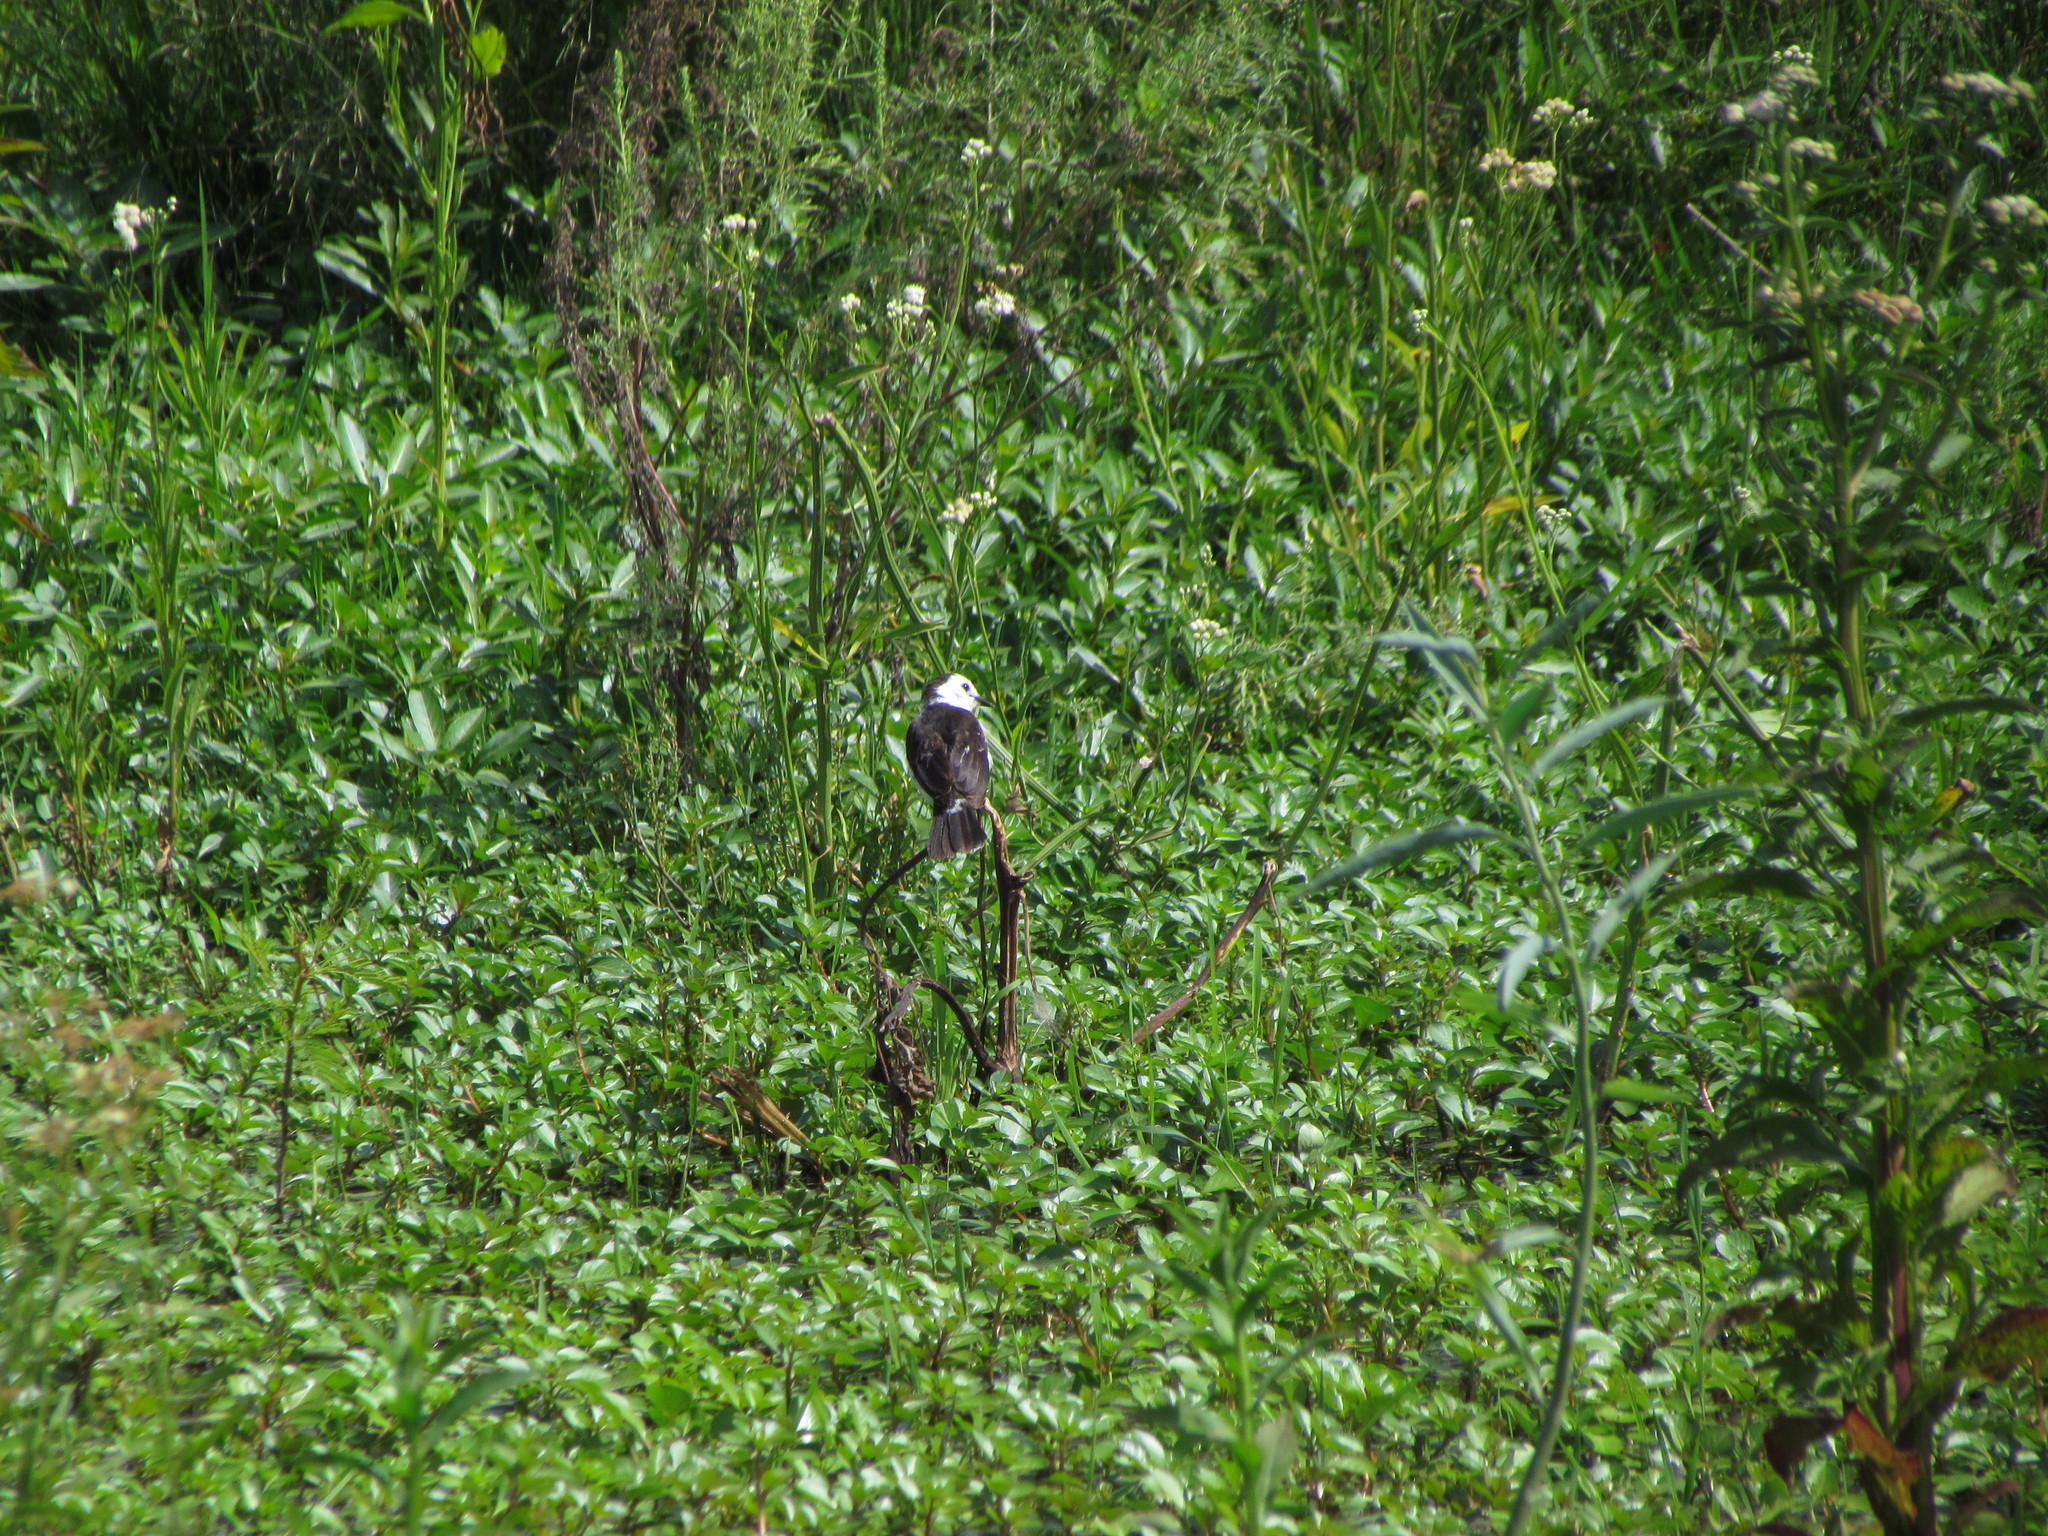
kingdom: Animalia
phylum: Chordata
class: Aves
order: Passeriformes
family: Tyrannidae
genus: Fluvicola
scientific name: Fluvicola pica
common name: Pied water-tyrant
